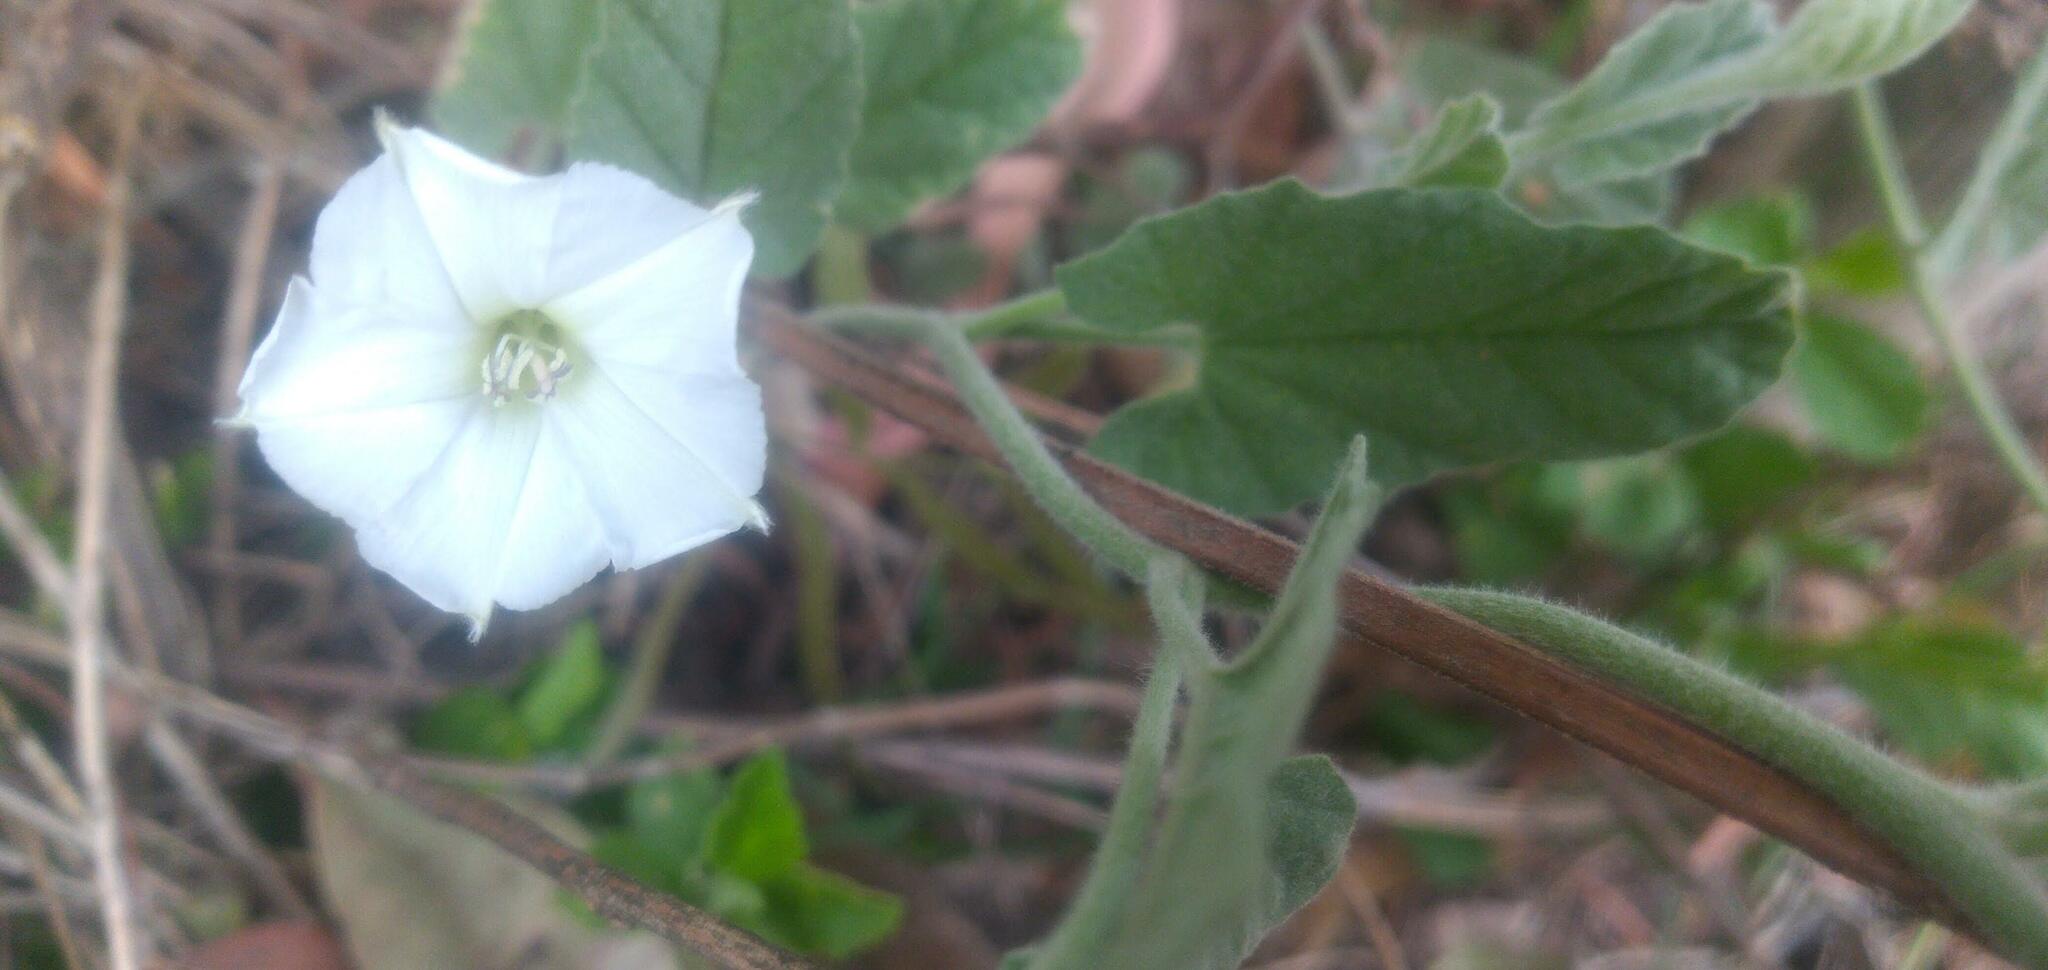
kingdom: Plantae
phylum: Tracheophyta
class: Magnoliopsida
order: Solanales
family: Convolvulaceae
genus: Convolvulus
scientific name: Convolvulus hermanniae
